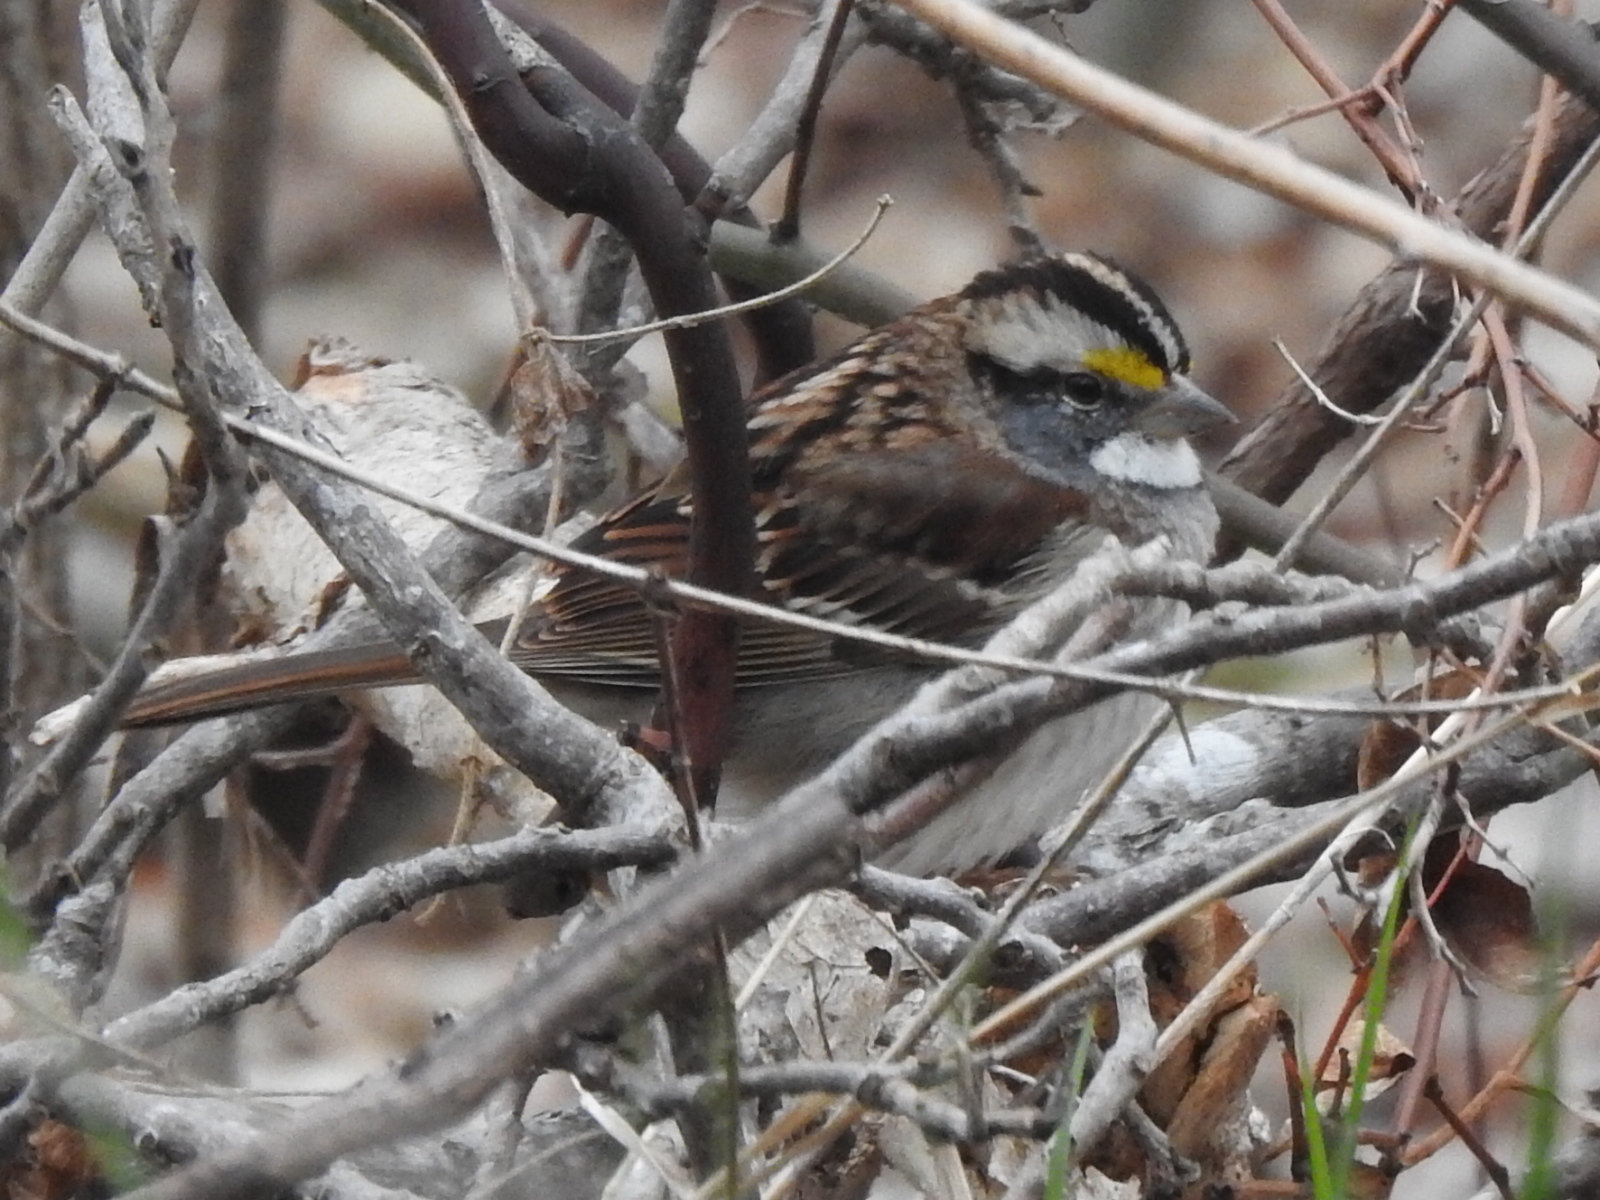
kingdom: Animalia
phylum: Chordata
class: Aves
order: Passeriformes
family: Passerellidae
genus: Zonotrichia
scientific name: Zonotrichia albicollis
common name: White-throated sparrow
